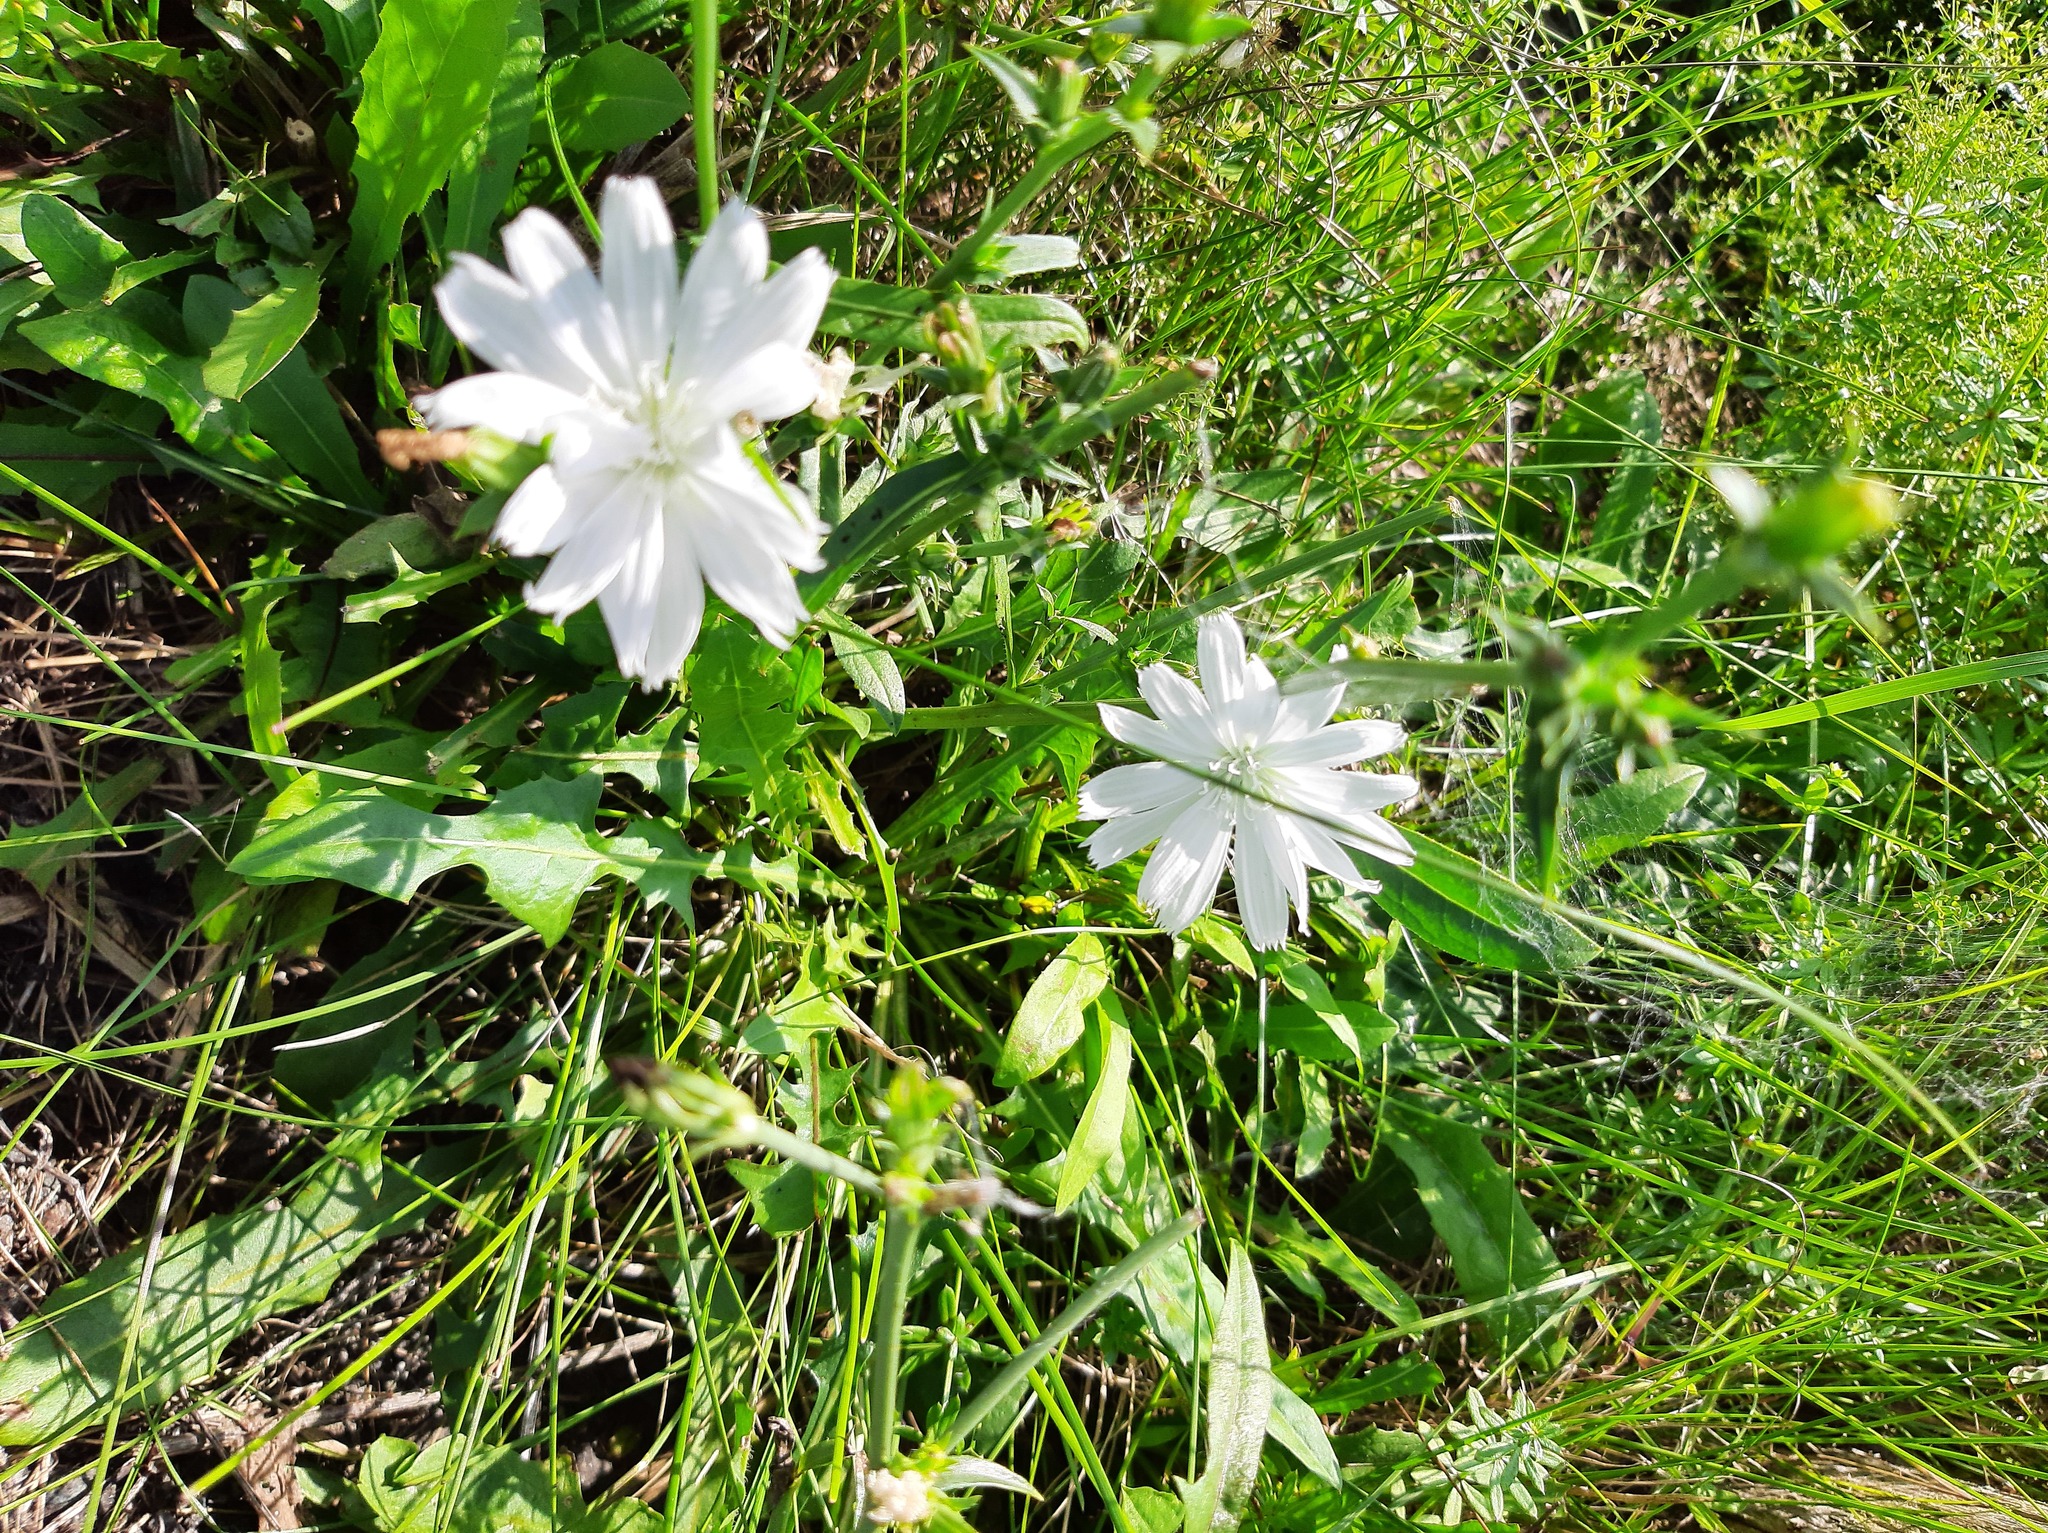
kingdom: Plantae
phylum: Tracheophyta
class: Magnoliopsida
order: Asterales
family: Asteraceae
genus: Cichorium
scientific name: Cichorium intybus
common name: Chicory
